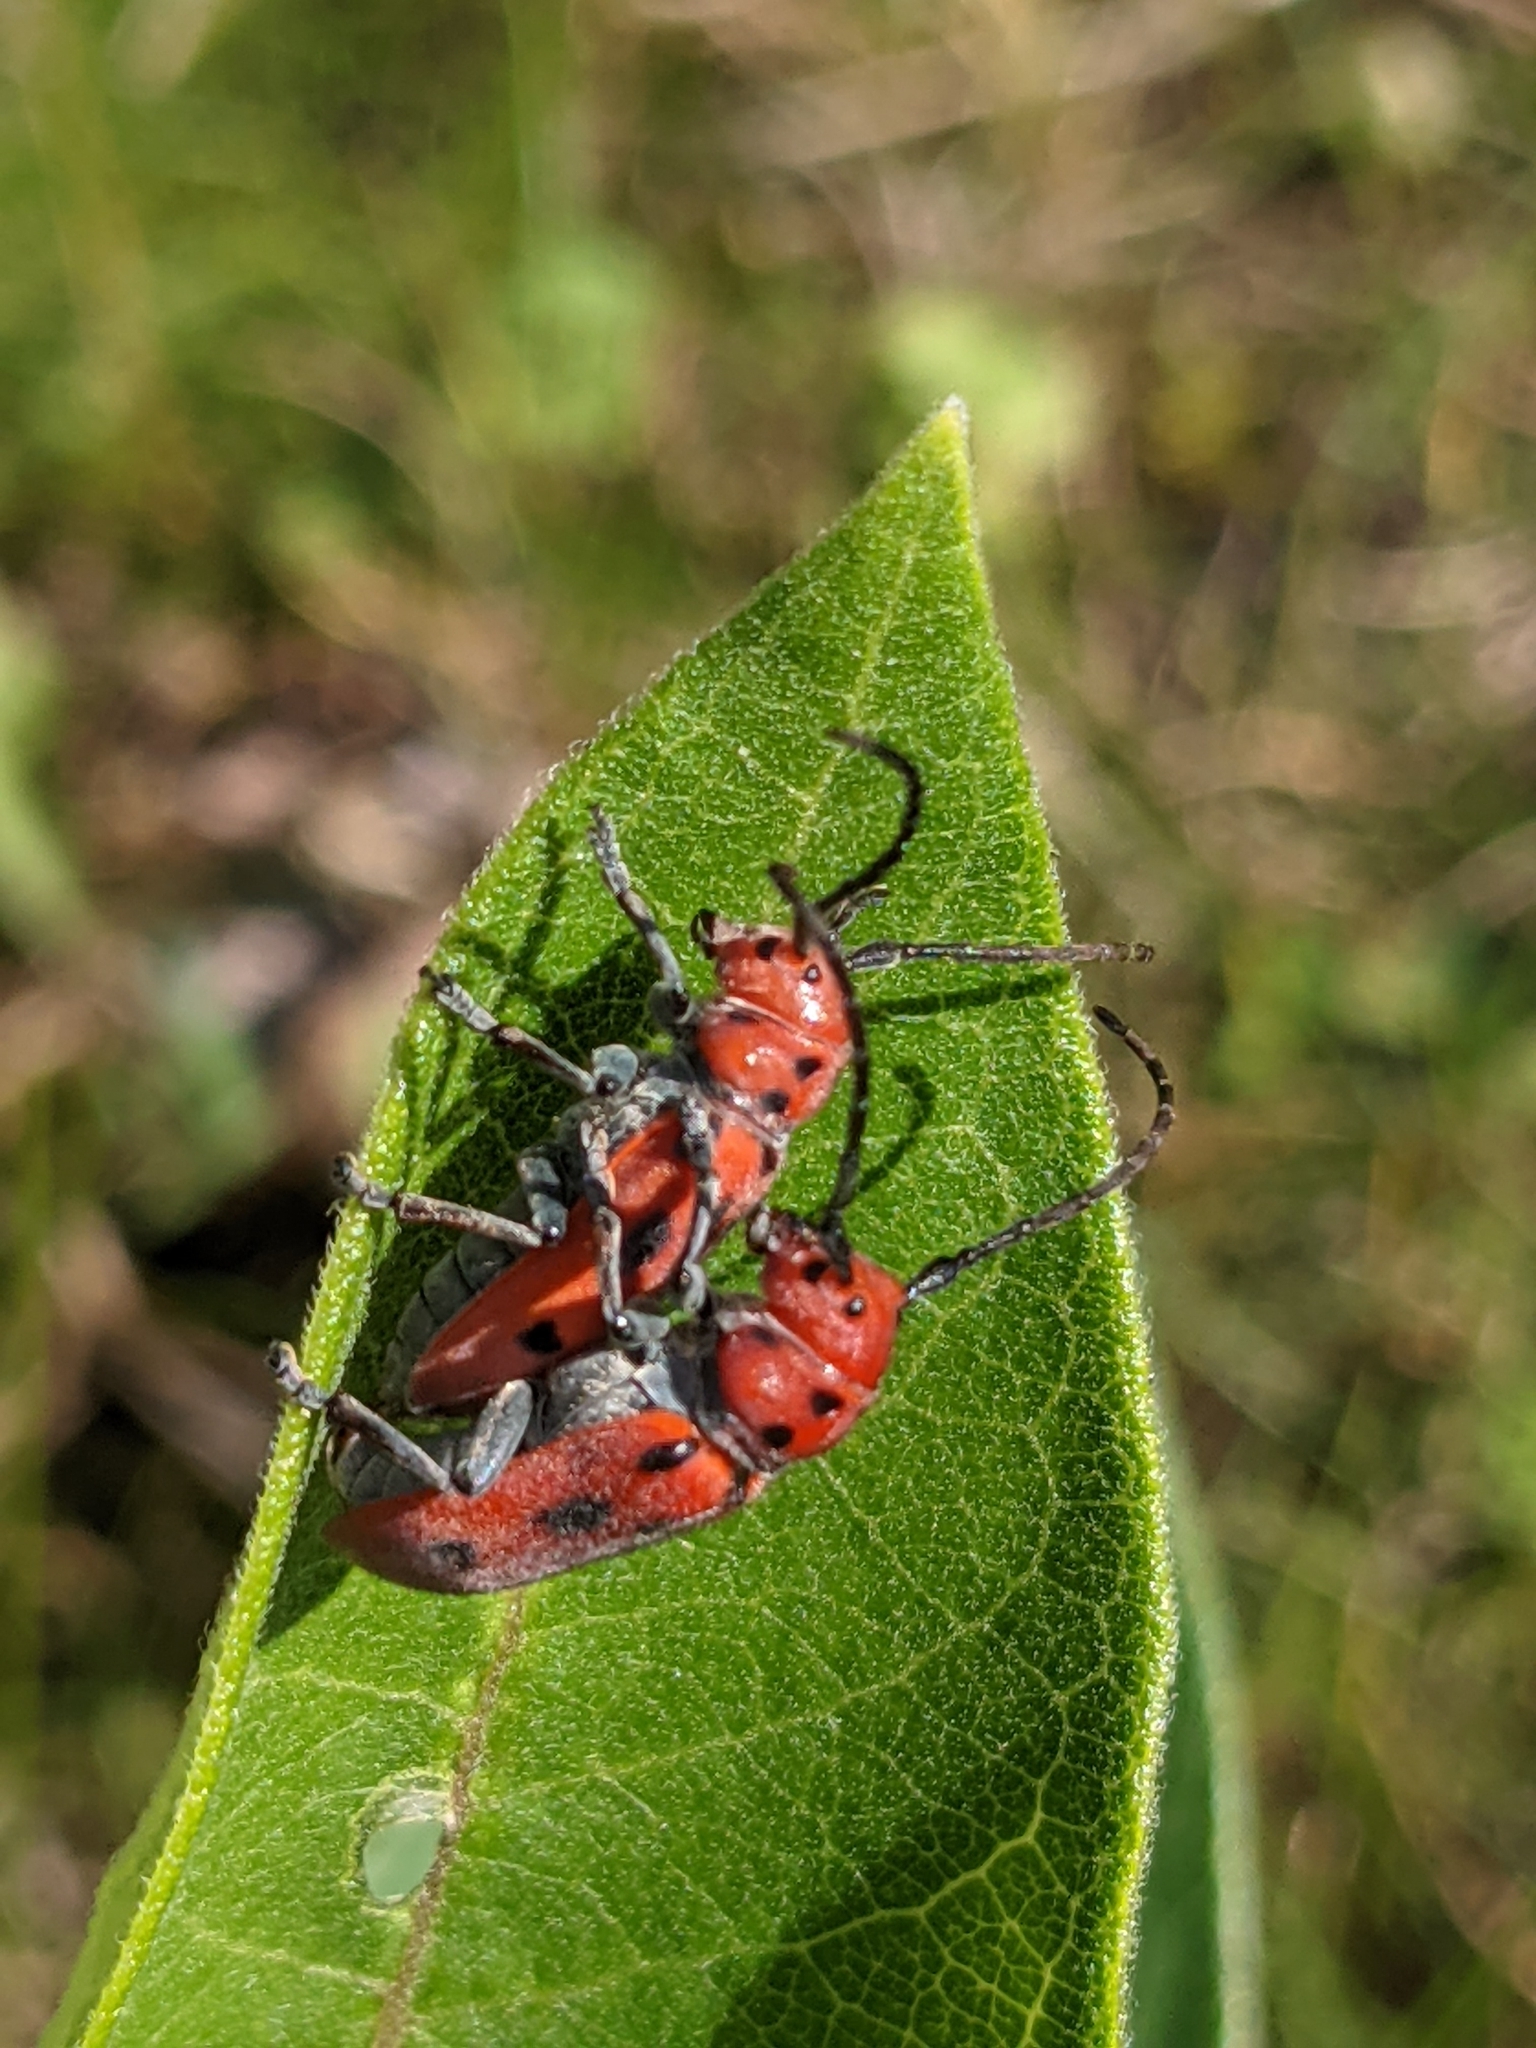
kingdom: Animalia
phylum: Arthropoda
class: Insecta
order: Coleoptera
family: Cerambycidae
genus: Tetraopes
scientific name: Tetraopes tetrophthalmus
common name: Red milkweed beetle
